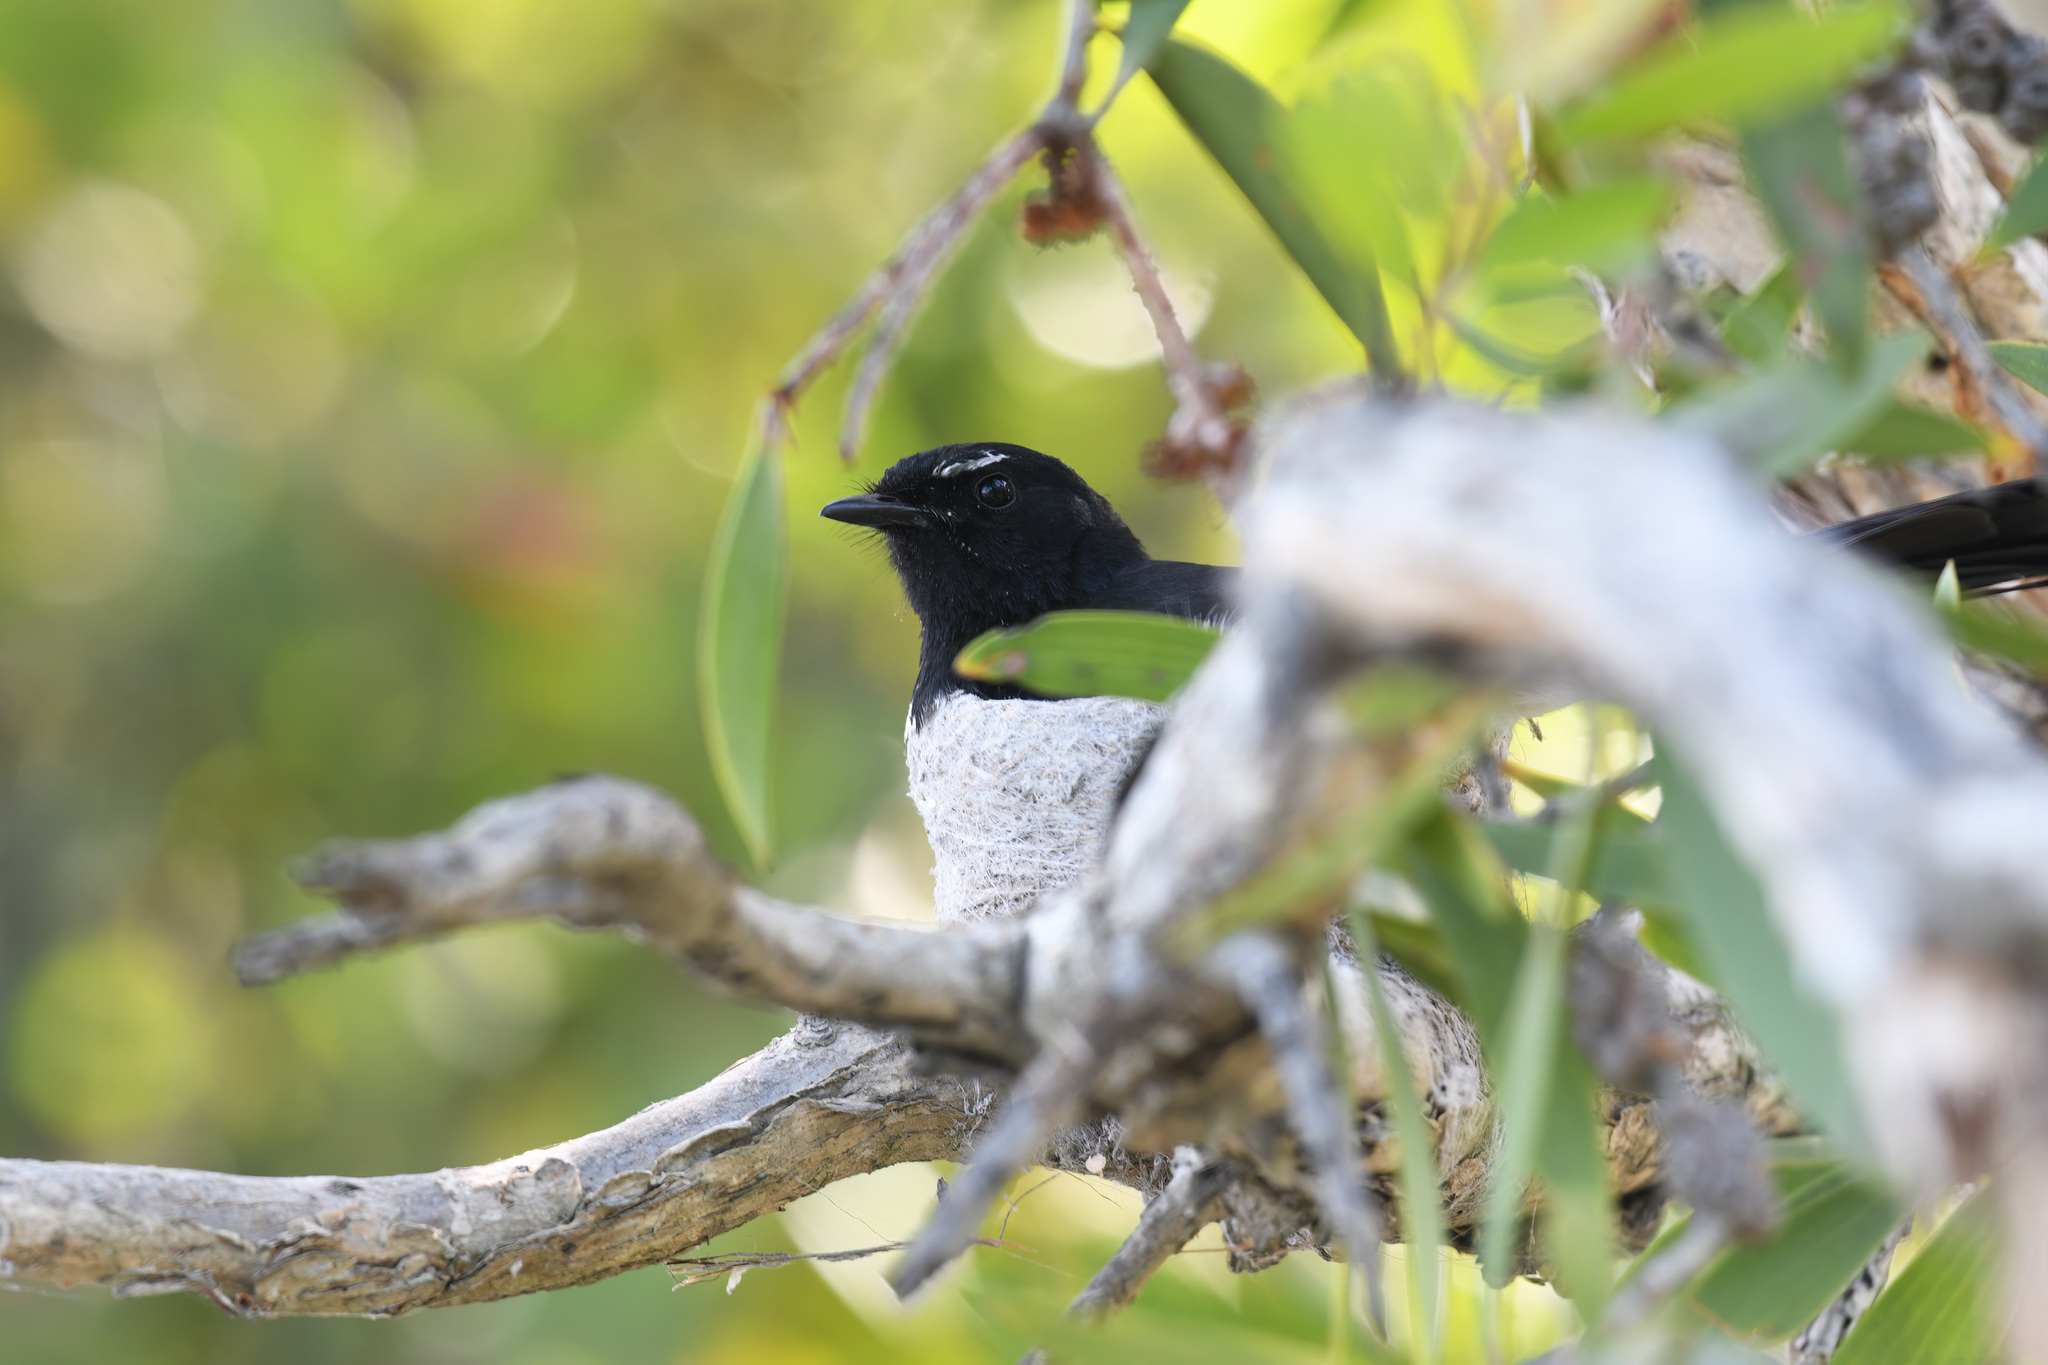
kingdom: Animalia
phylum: Chordata
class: Aves
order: Passeriformes
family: Rhipiduridae
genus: Rhipidura
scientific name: Rhipidura leucophrys
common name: Willie wagtail
